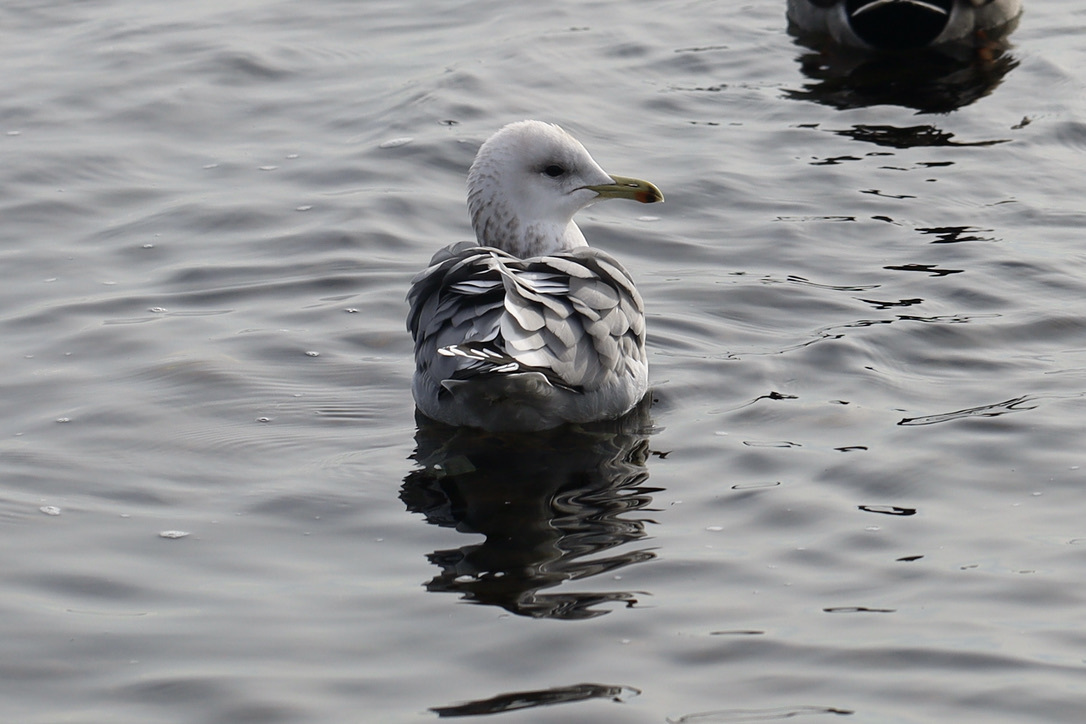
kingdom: Animalia
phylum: Chordata
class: Aves
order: Charadriiformes
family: Laridae
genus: Larus
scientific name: Larus brachyrhynchus
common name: Short-billed gull
